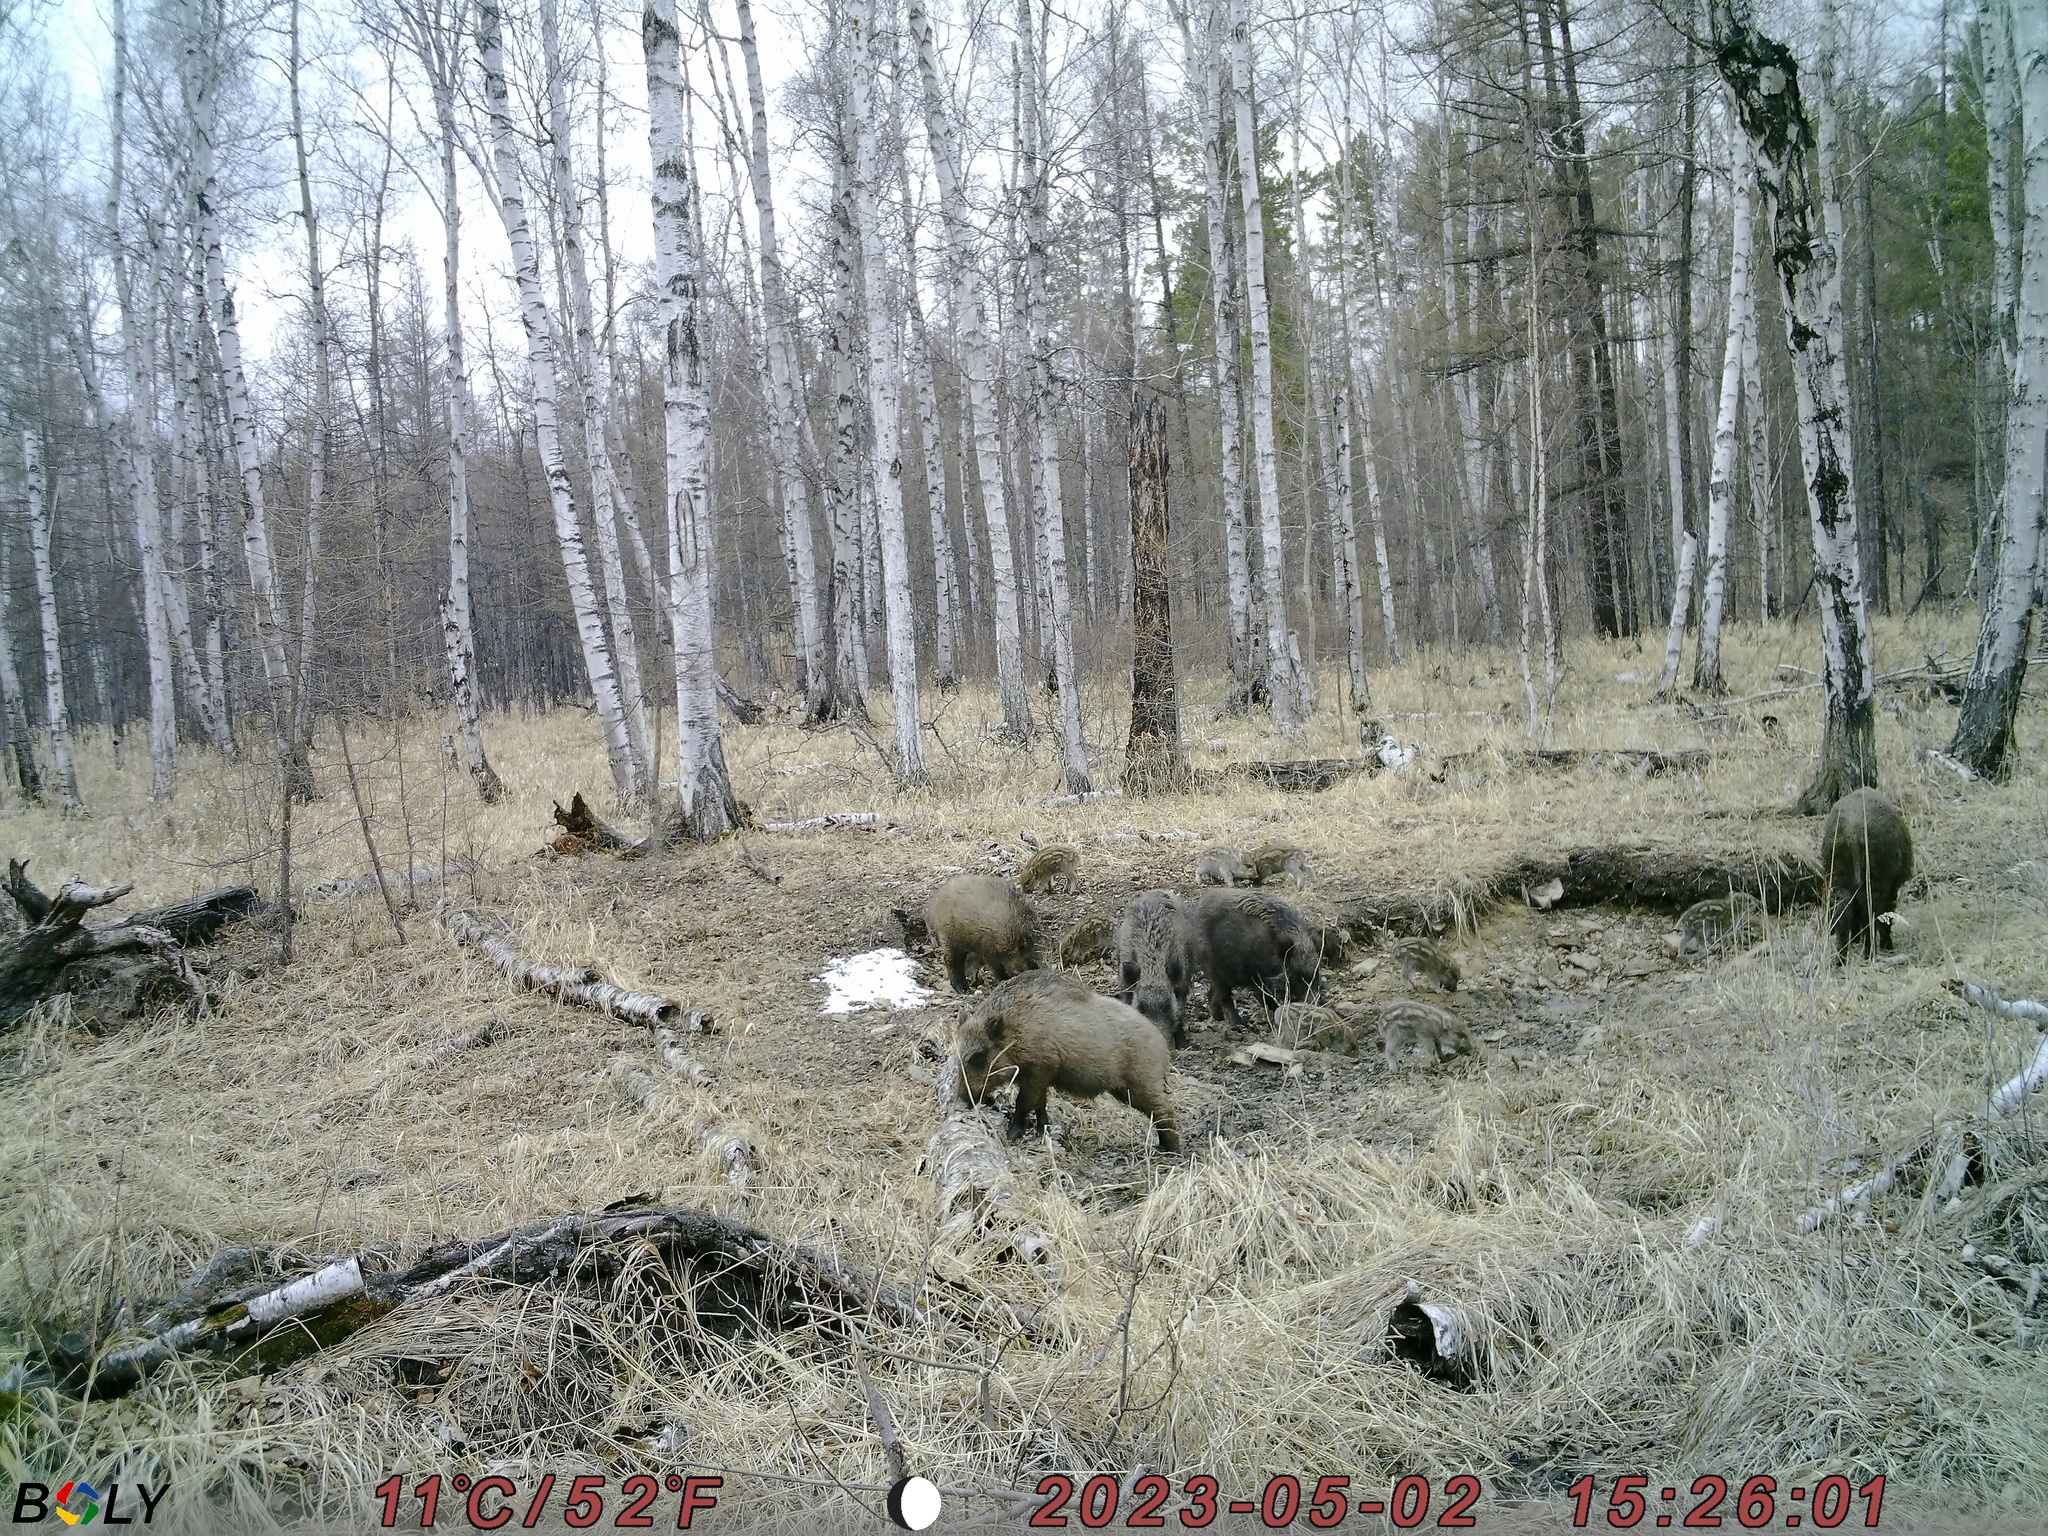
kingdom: Animalia
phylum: Chordata
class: Mammalia
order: Artiodactyla
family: Suidae
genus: Sus
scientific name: Sus scrofa
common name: Wild boar
